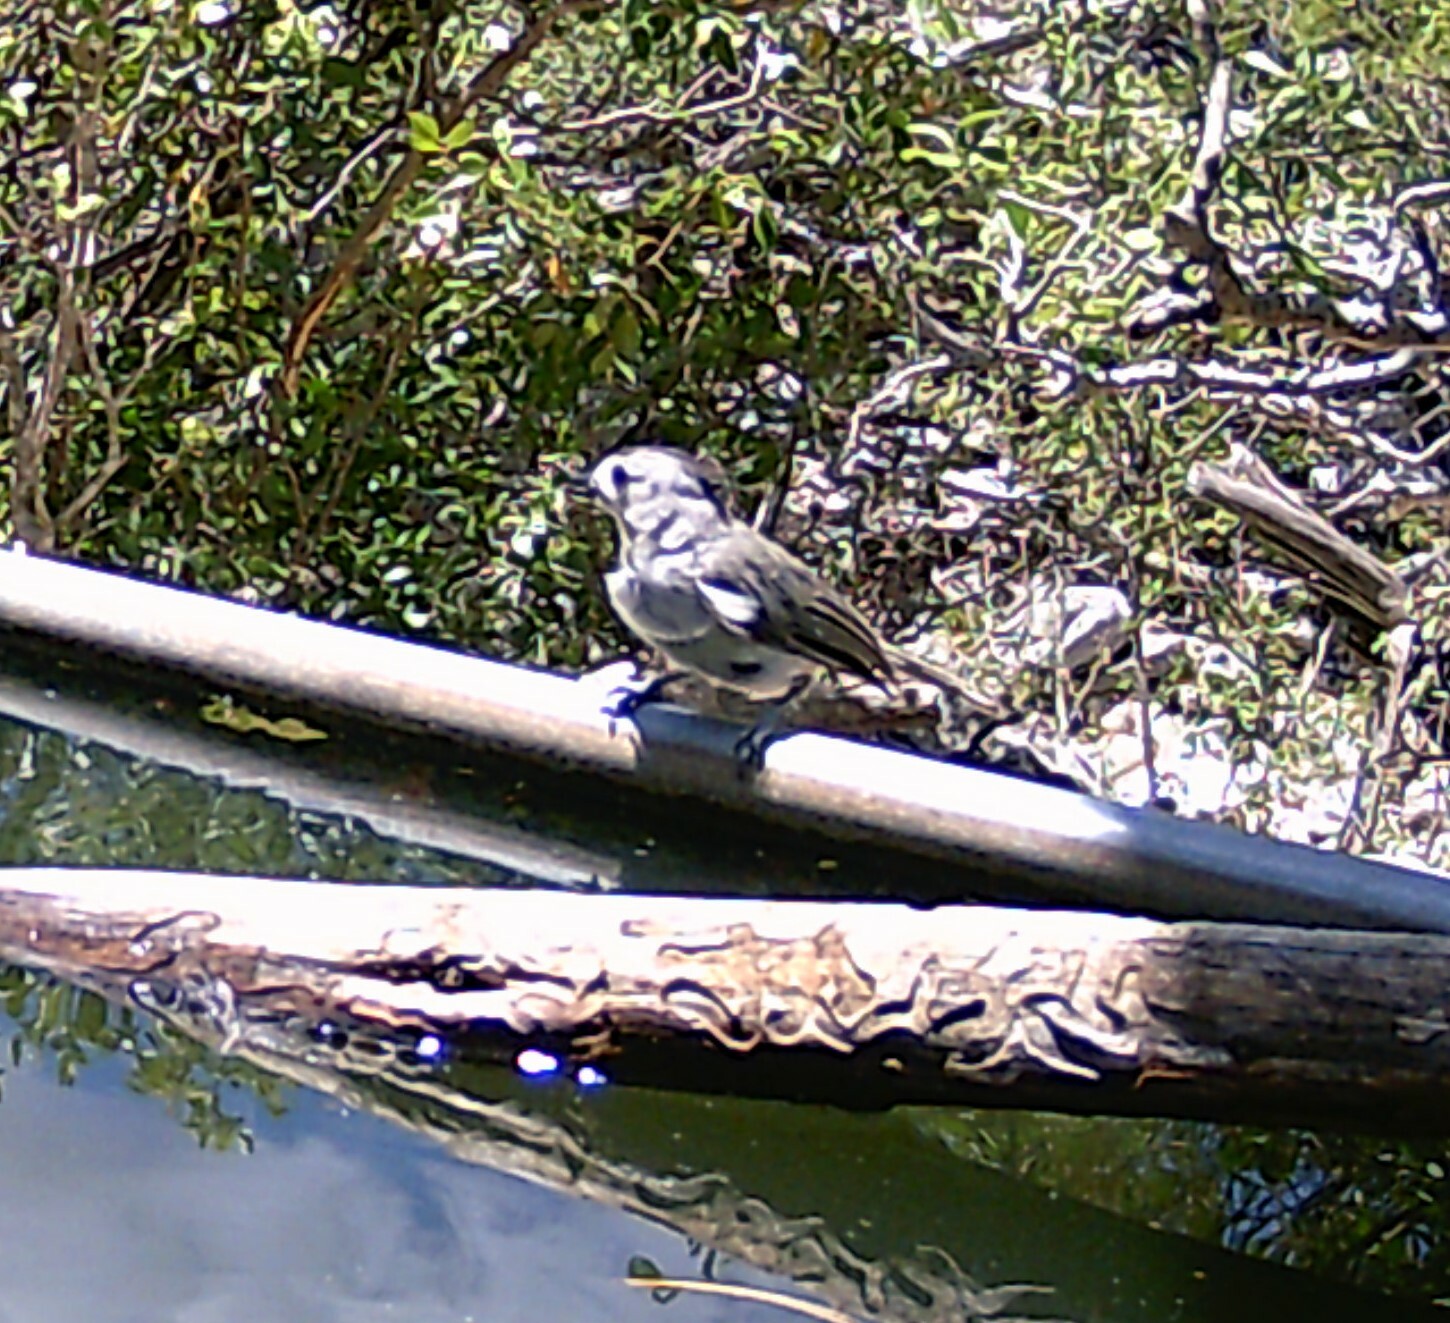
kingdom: Animalia
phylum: Chordata
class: Aves
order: Passeriformes
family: Paridae
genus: Baeolophus
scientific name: Baeolophus atricristatus
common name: Black-crested titmouse
